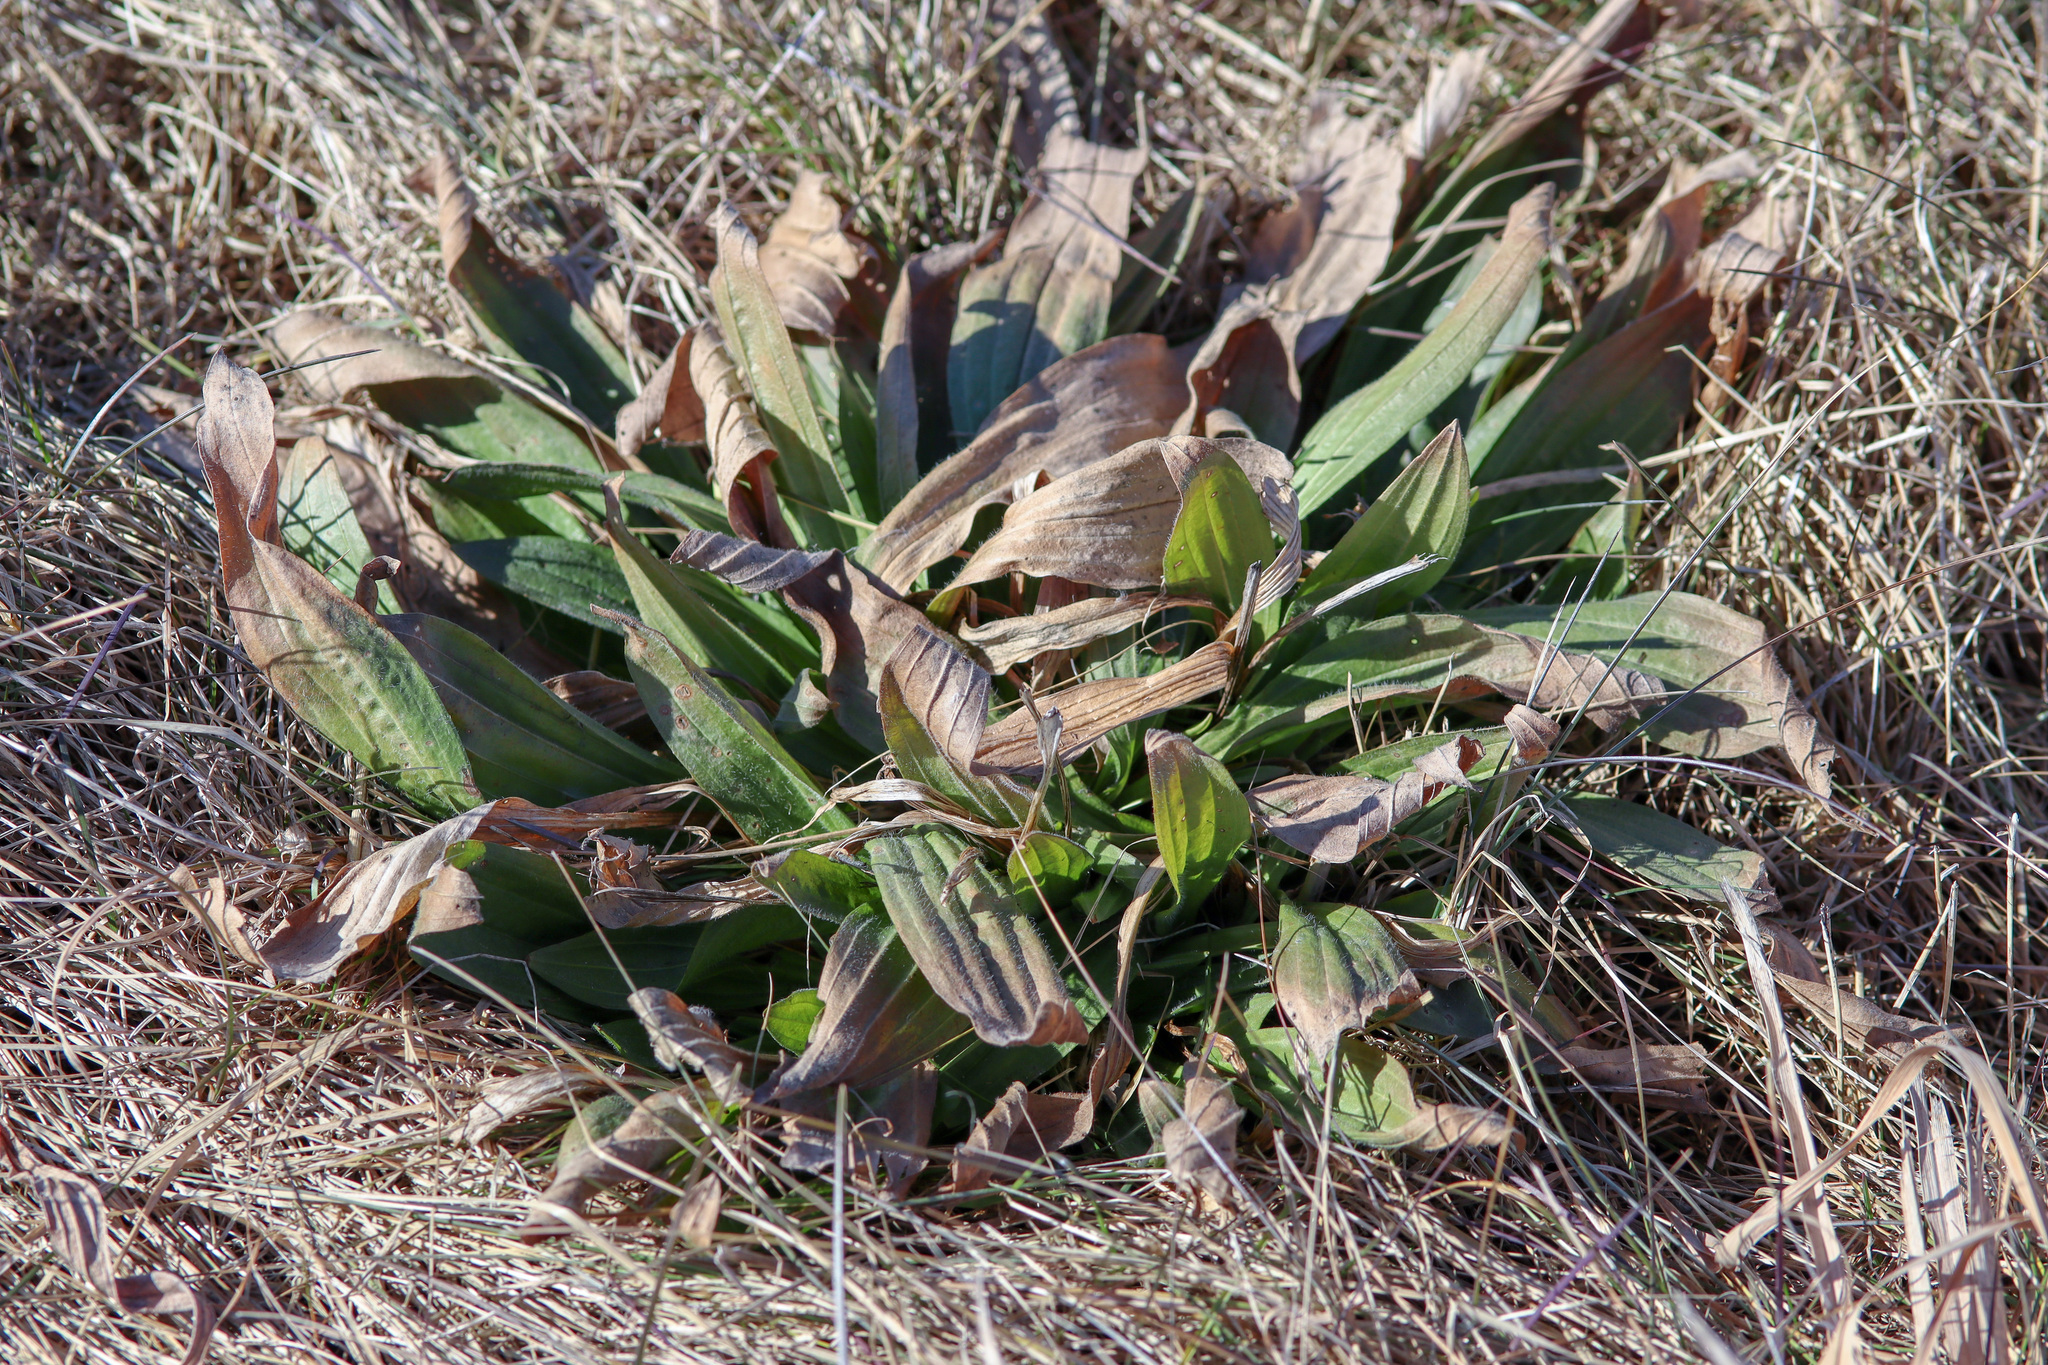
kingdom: Plantae
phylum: Tracheophyta
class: Magnoliopsida
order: Lamiales
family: Plantaginaceae
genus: Plantago
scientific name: Plantago lanceolata
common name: Ribwort plantain
